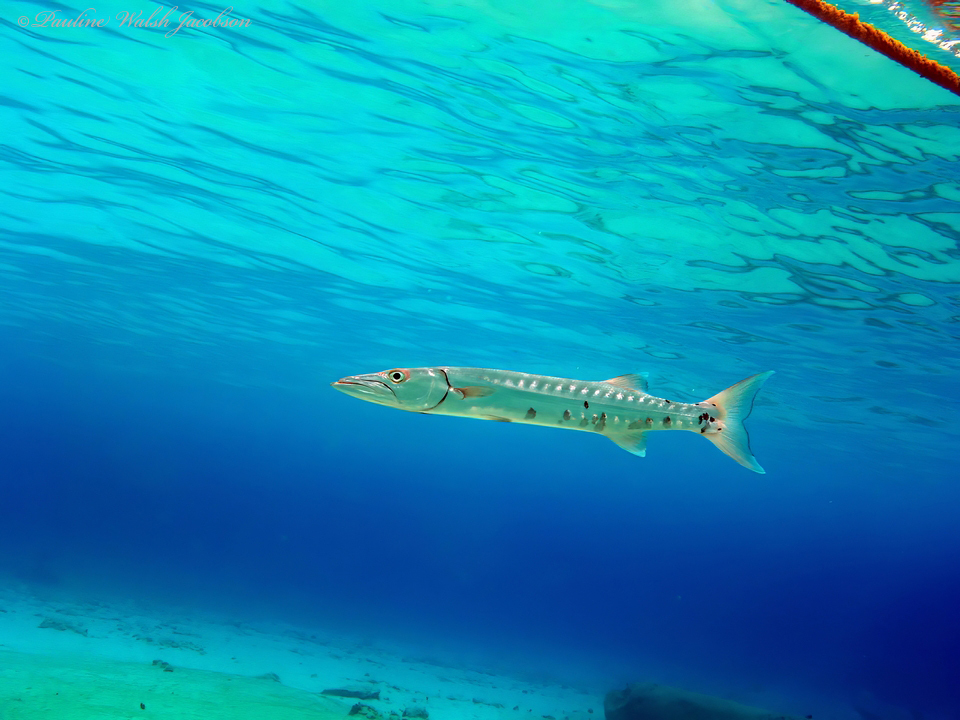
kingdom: Animalia
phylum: Chordata
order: Perciformes
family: Sphyraenidae
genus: Sphyraena
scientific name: Sphyraena barracuda
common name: Great barracuda
